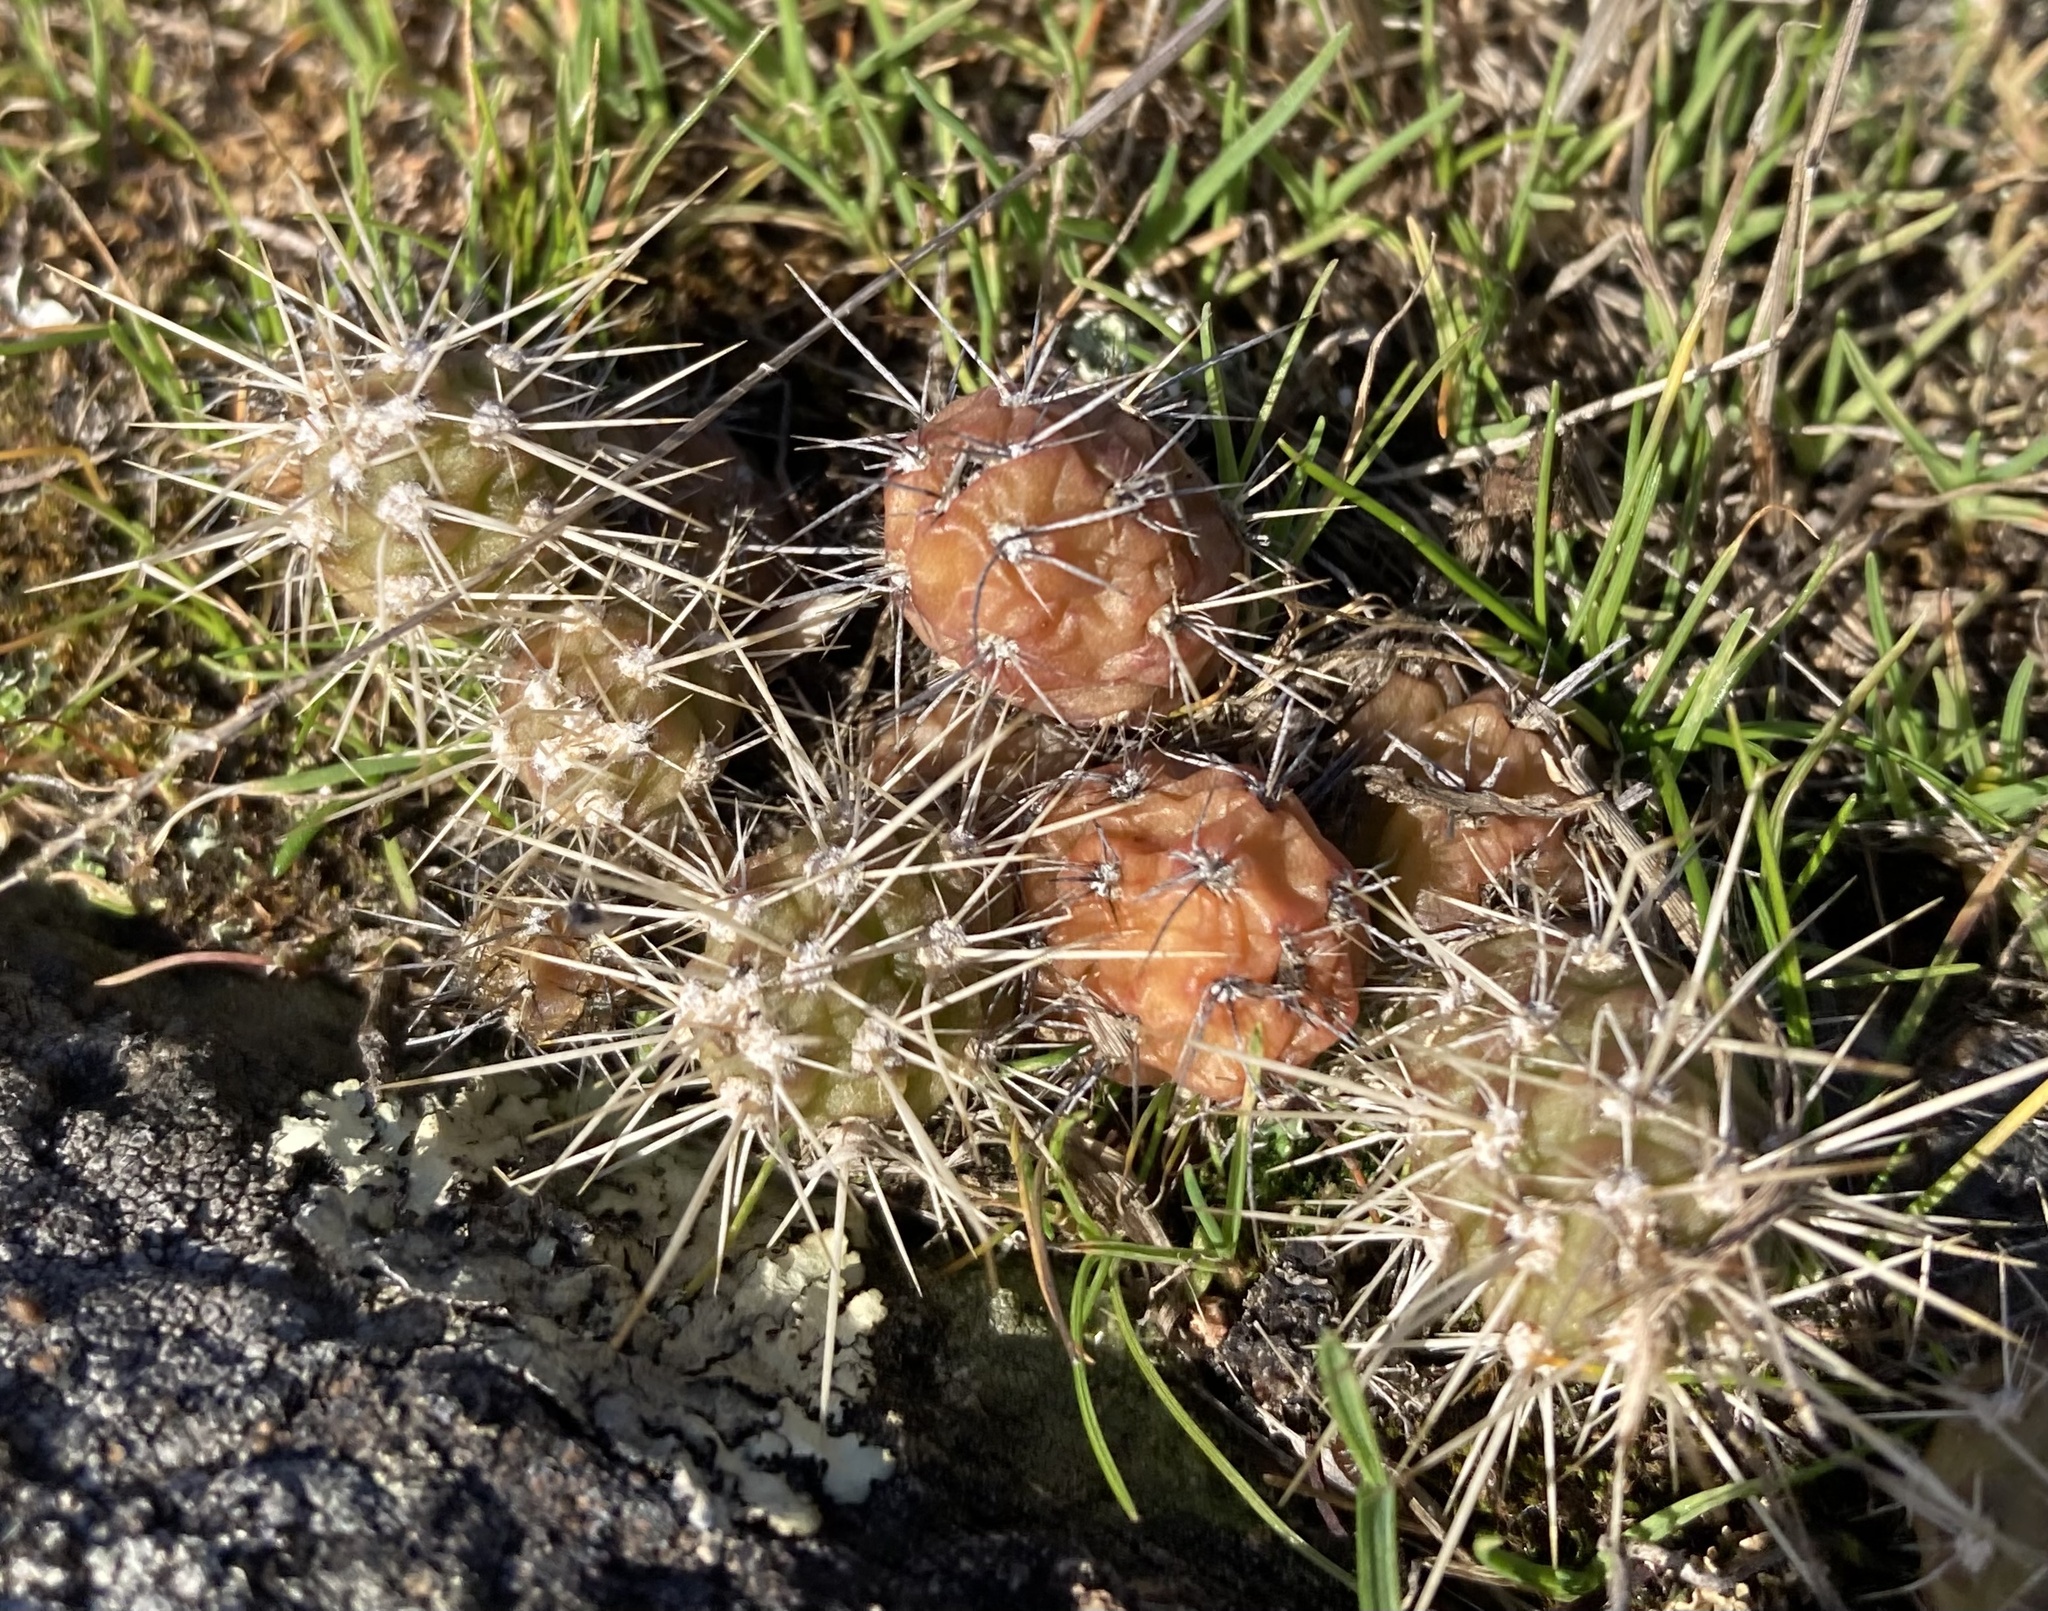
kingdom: Plantae
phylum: Tracheophyta
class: Magnoliopsida
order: Caryophyllales
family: Cactaceae
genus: Opuntia
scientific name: Opuntia fragilis
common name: Brittle cactus
